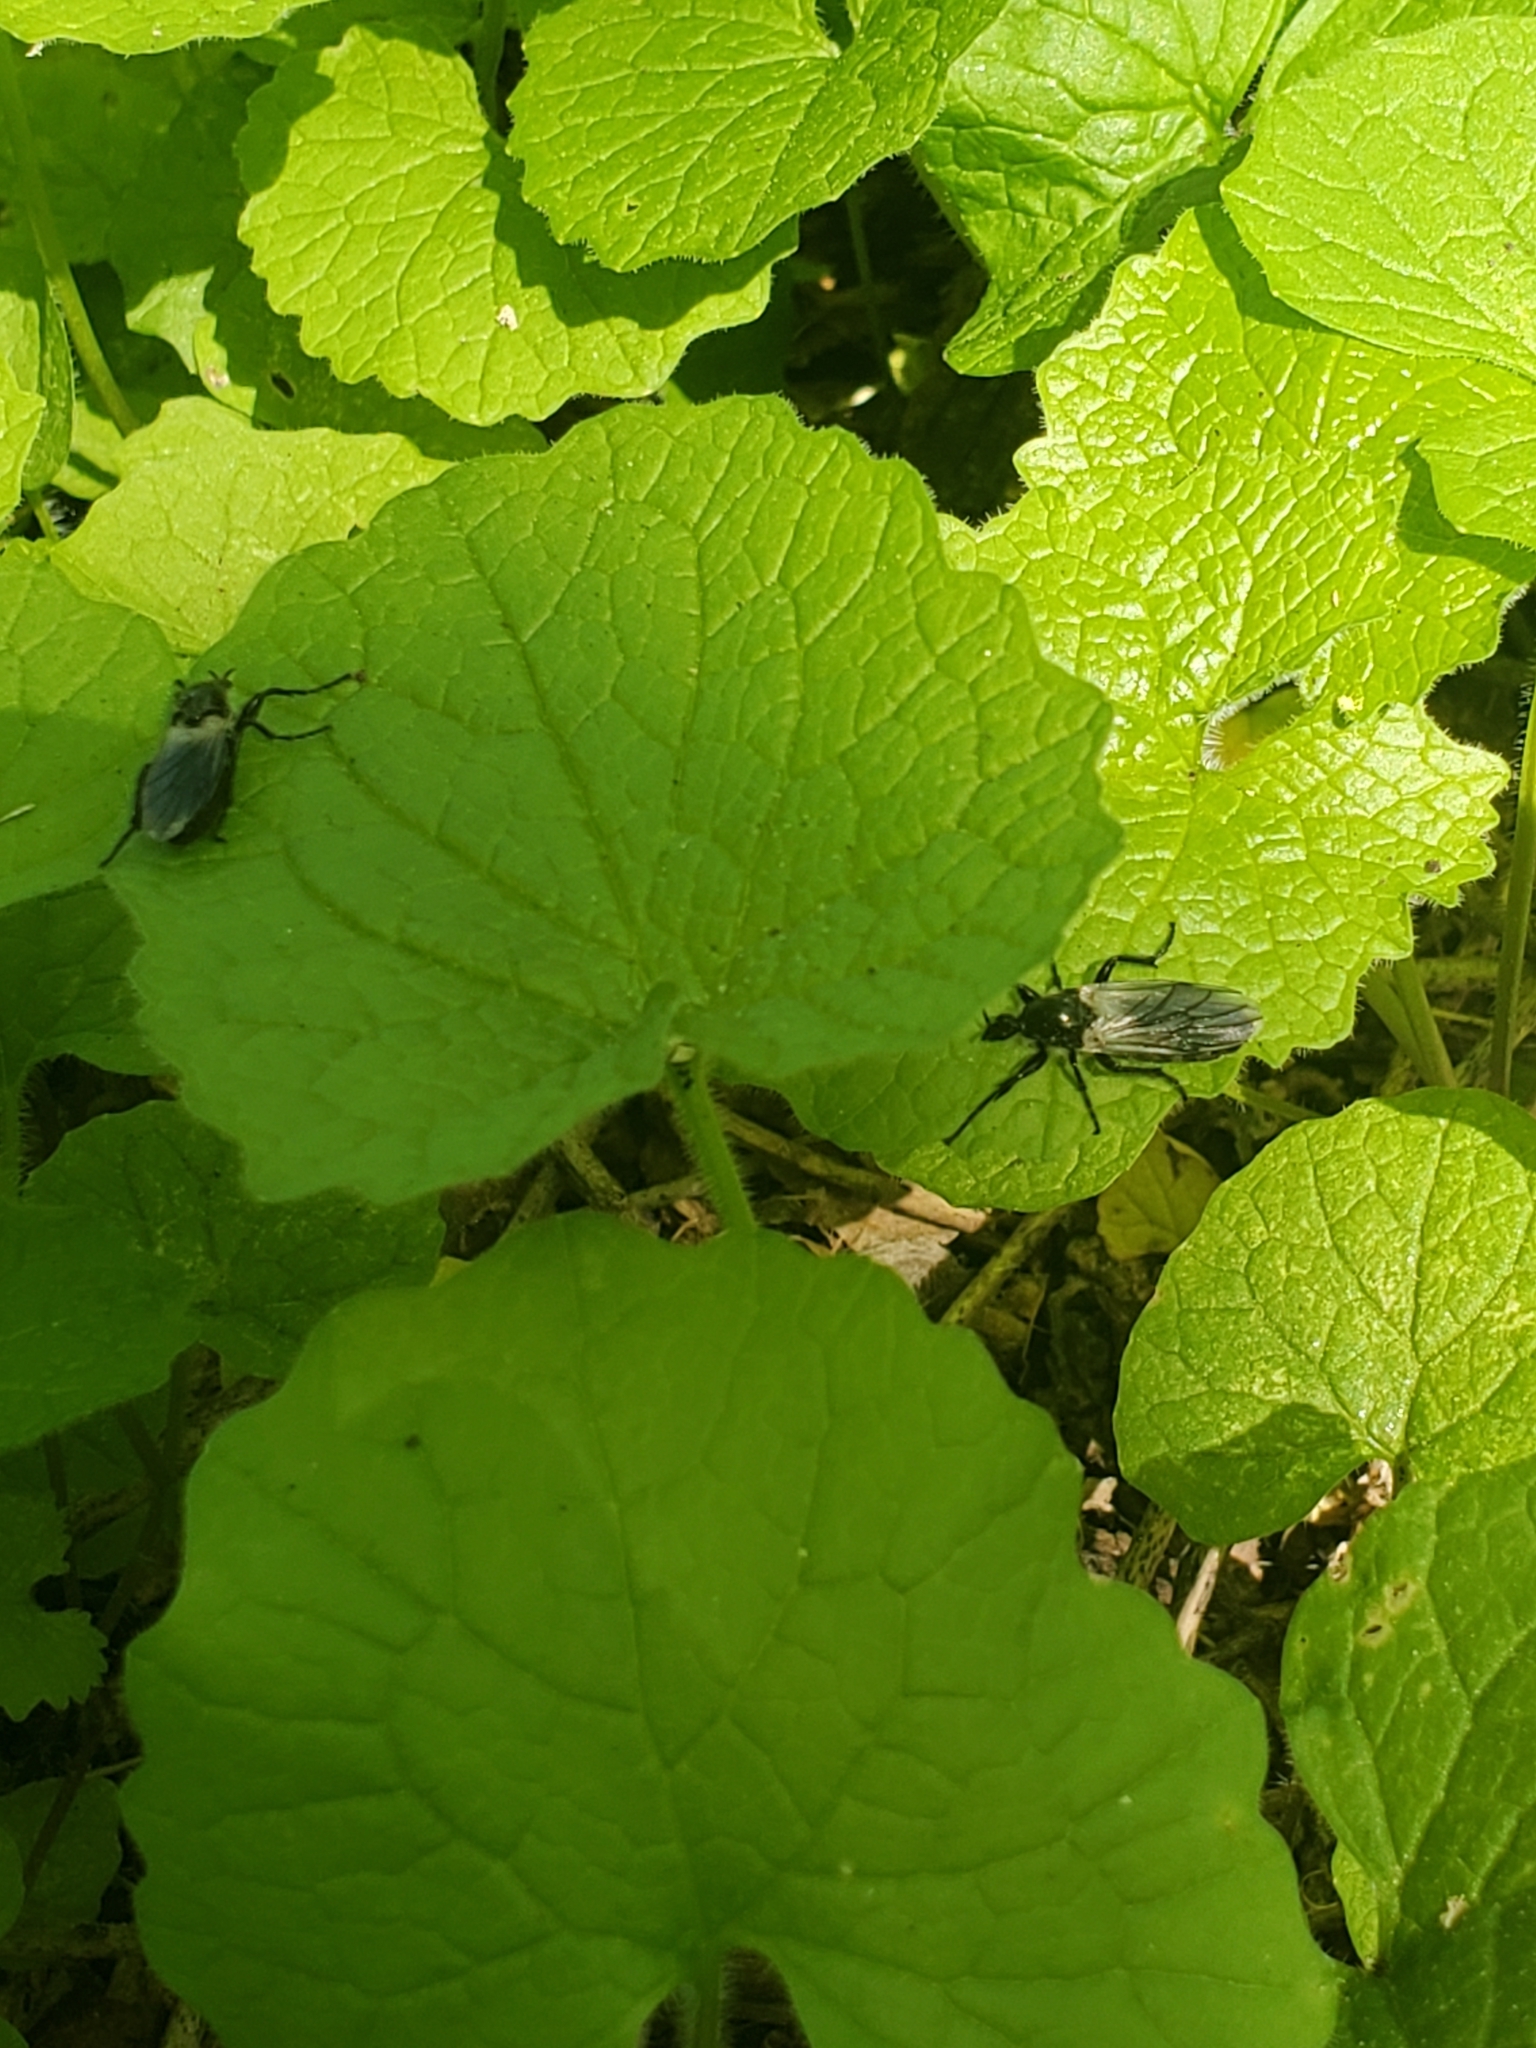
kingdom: Animalia
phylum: Arthropoda
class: Insecta
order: Diptera
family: Bibionidae
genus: Bibio
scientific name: Bibio albipennis
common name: White-winged march fly
